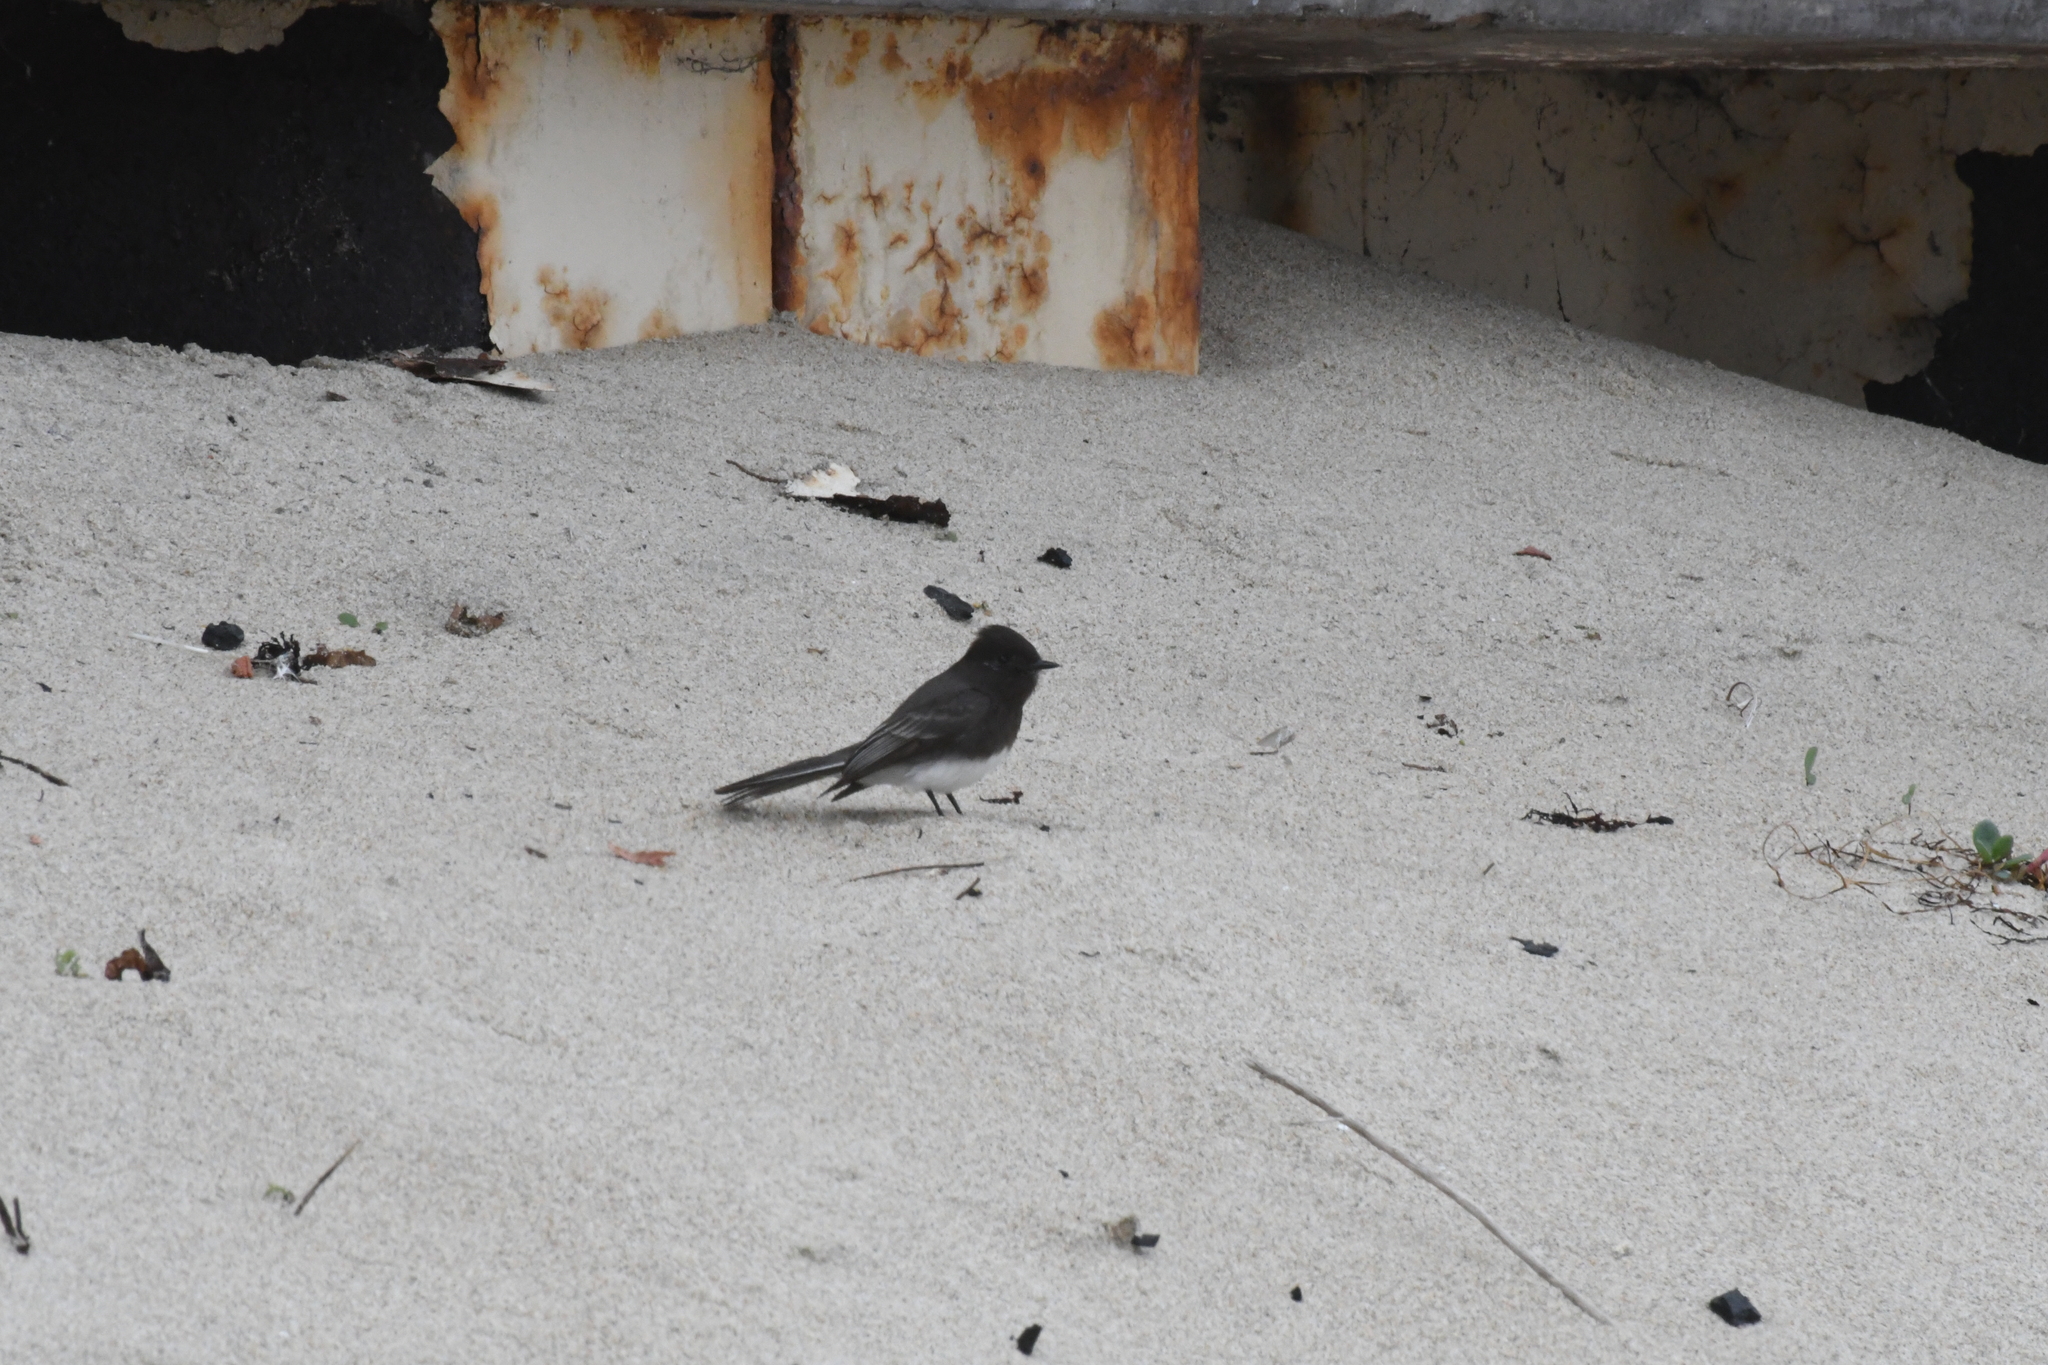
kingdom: Animalia
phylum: Chordata
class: Aves
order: Passeriformes
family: Tyrannidae
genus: Sayornis
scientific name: Sayornis nigricans
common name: Black phoebe
